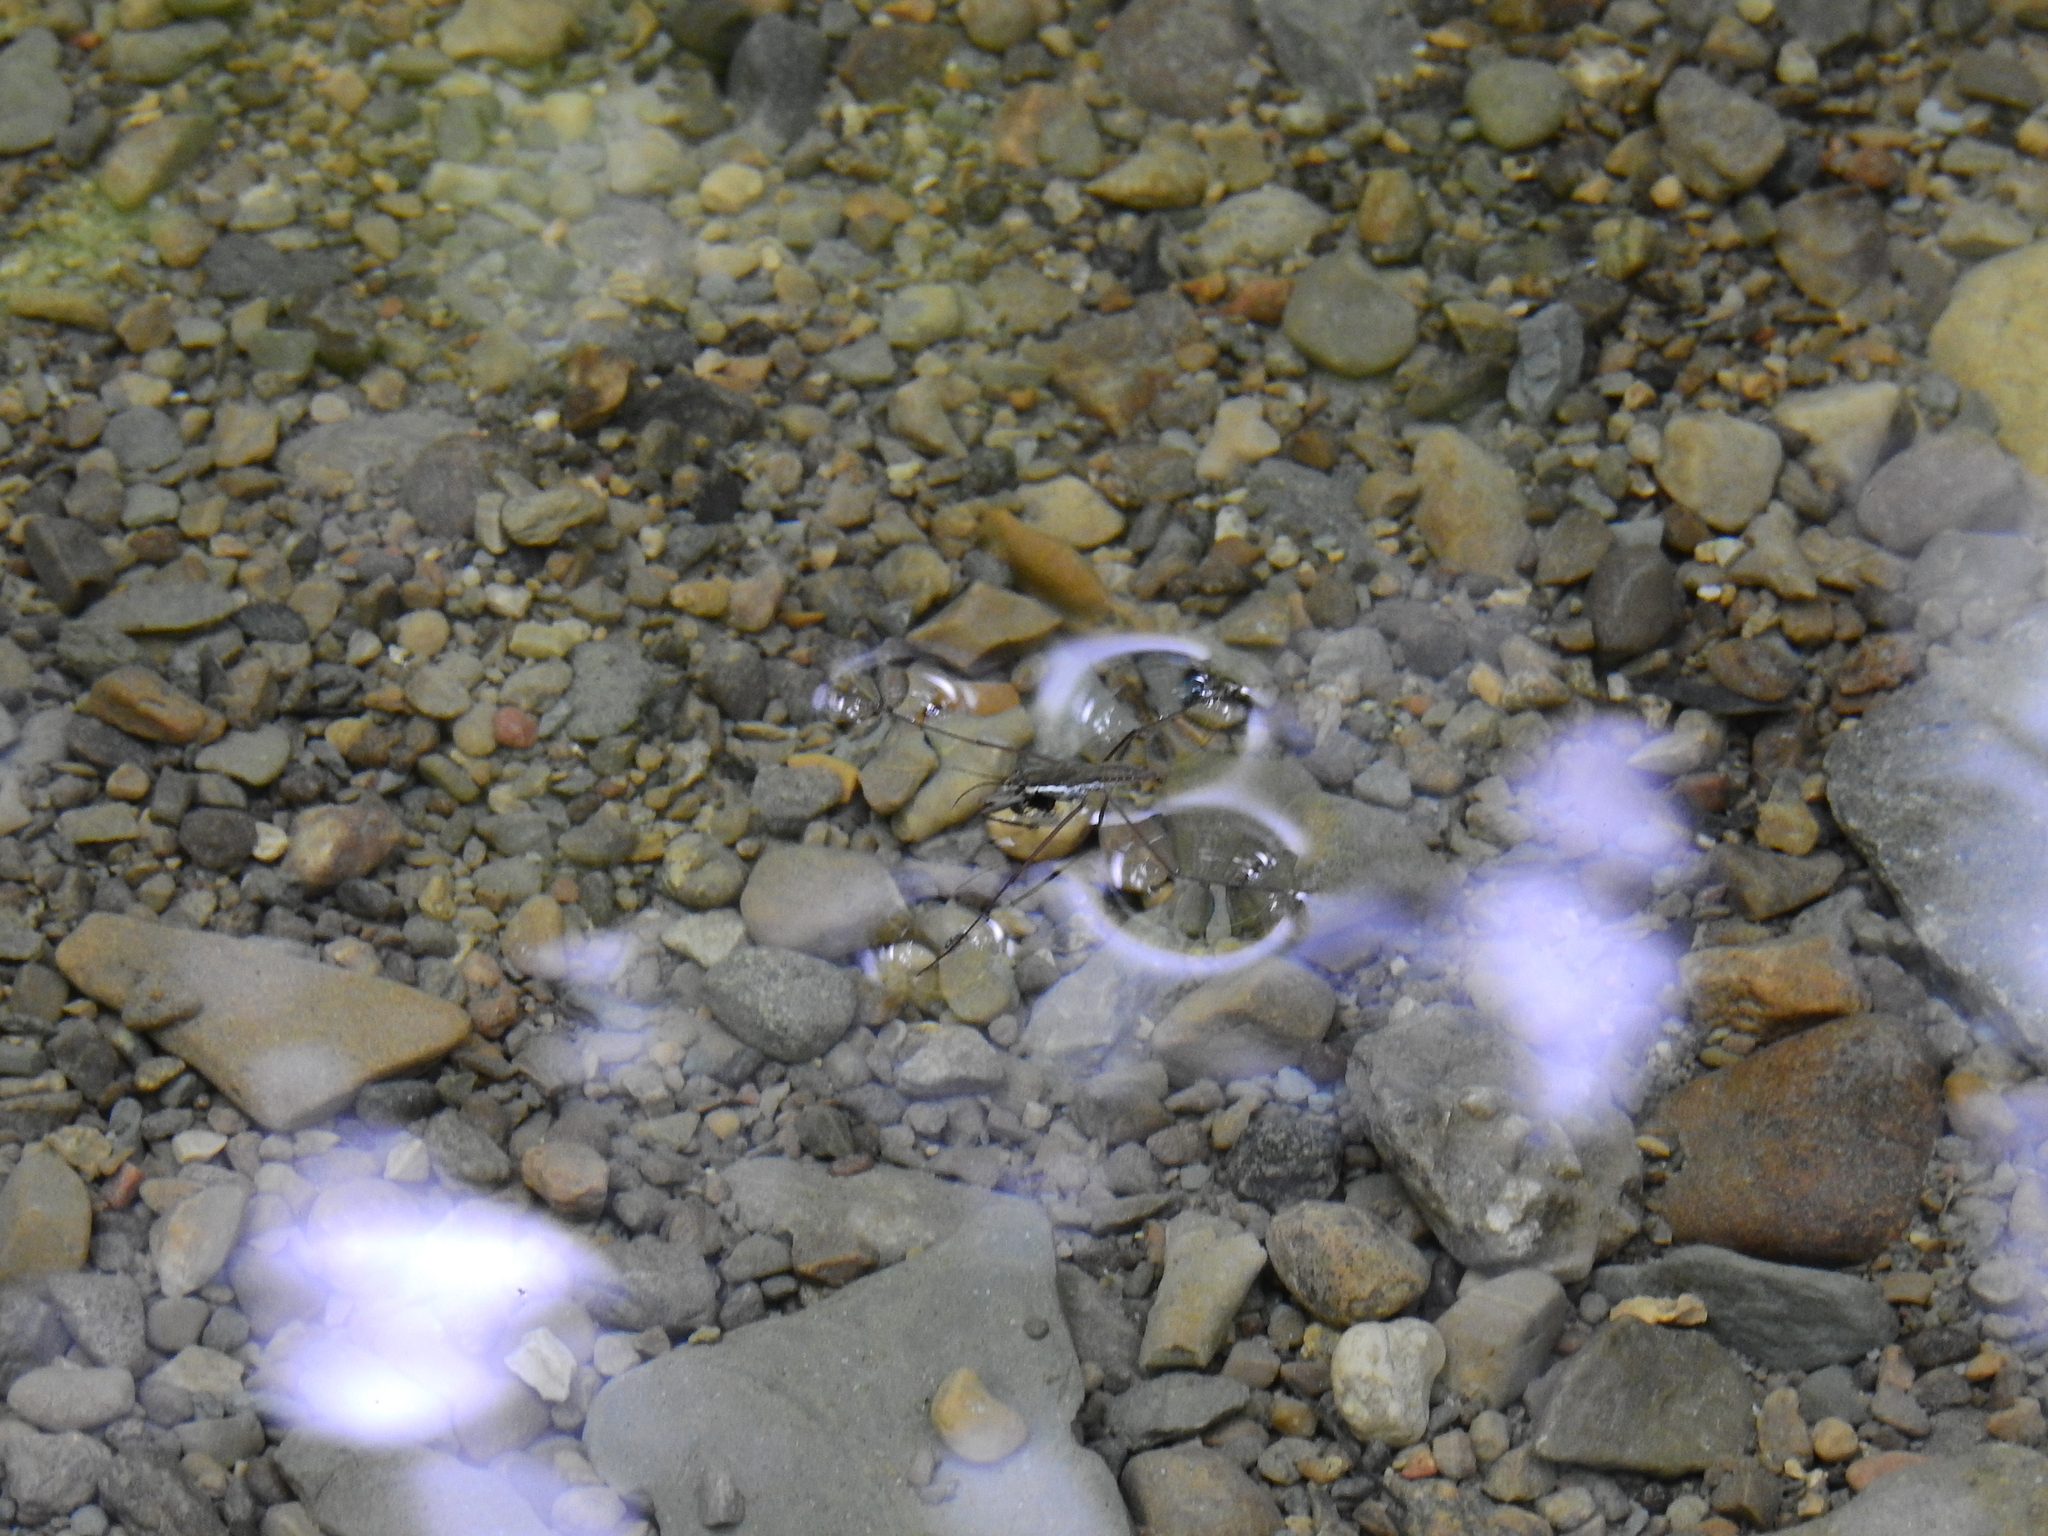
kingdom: Animalia
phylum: Arthropoda
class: Insecta
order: Hemiptera
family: Gerridae
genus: Aquarius
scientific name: Aquarius remigis
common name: Common water strider
